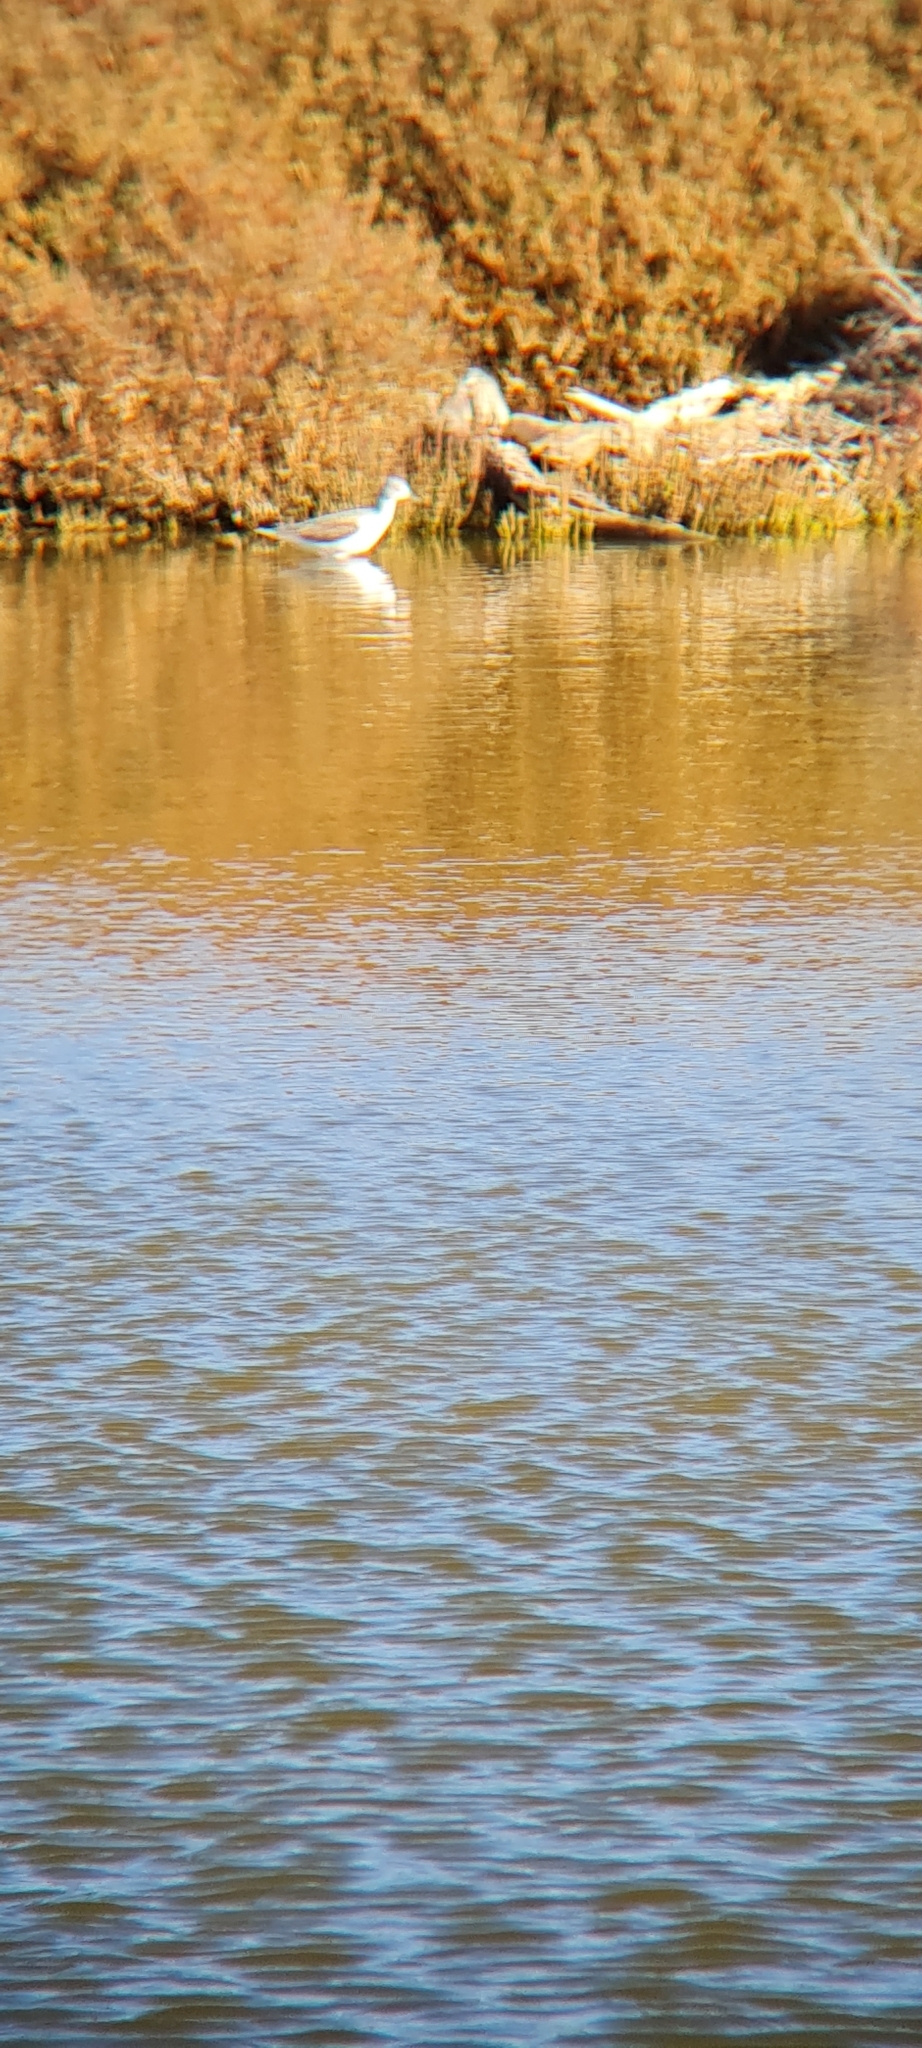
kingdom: Animalia
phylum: Chordata
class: Aves
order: Charadriiformes
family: Scolopacidae
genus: Tringa
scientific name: Tringa nebularia
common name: Common greenshank
